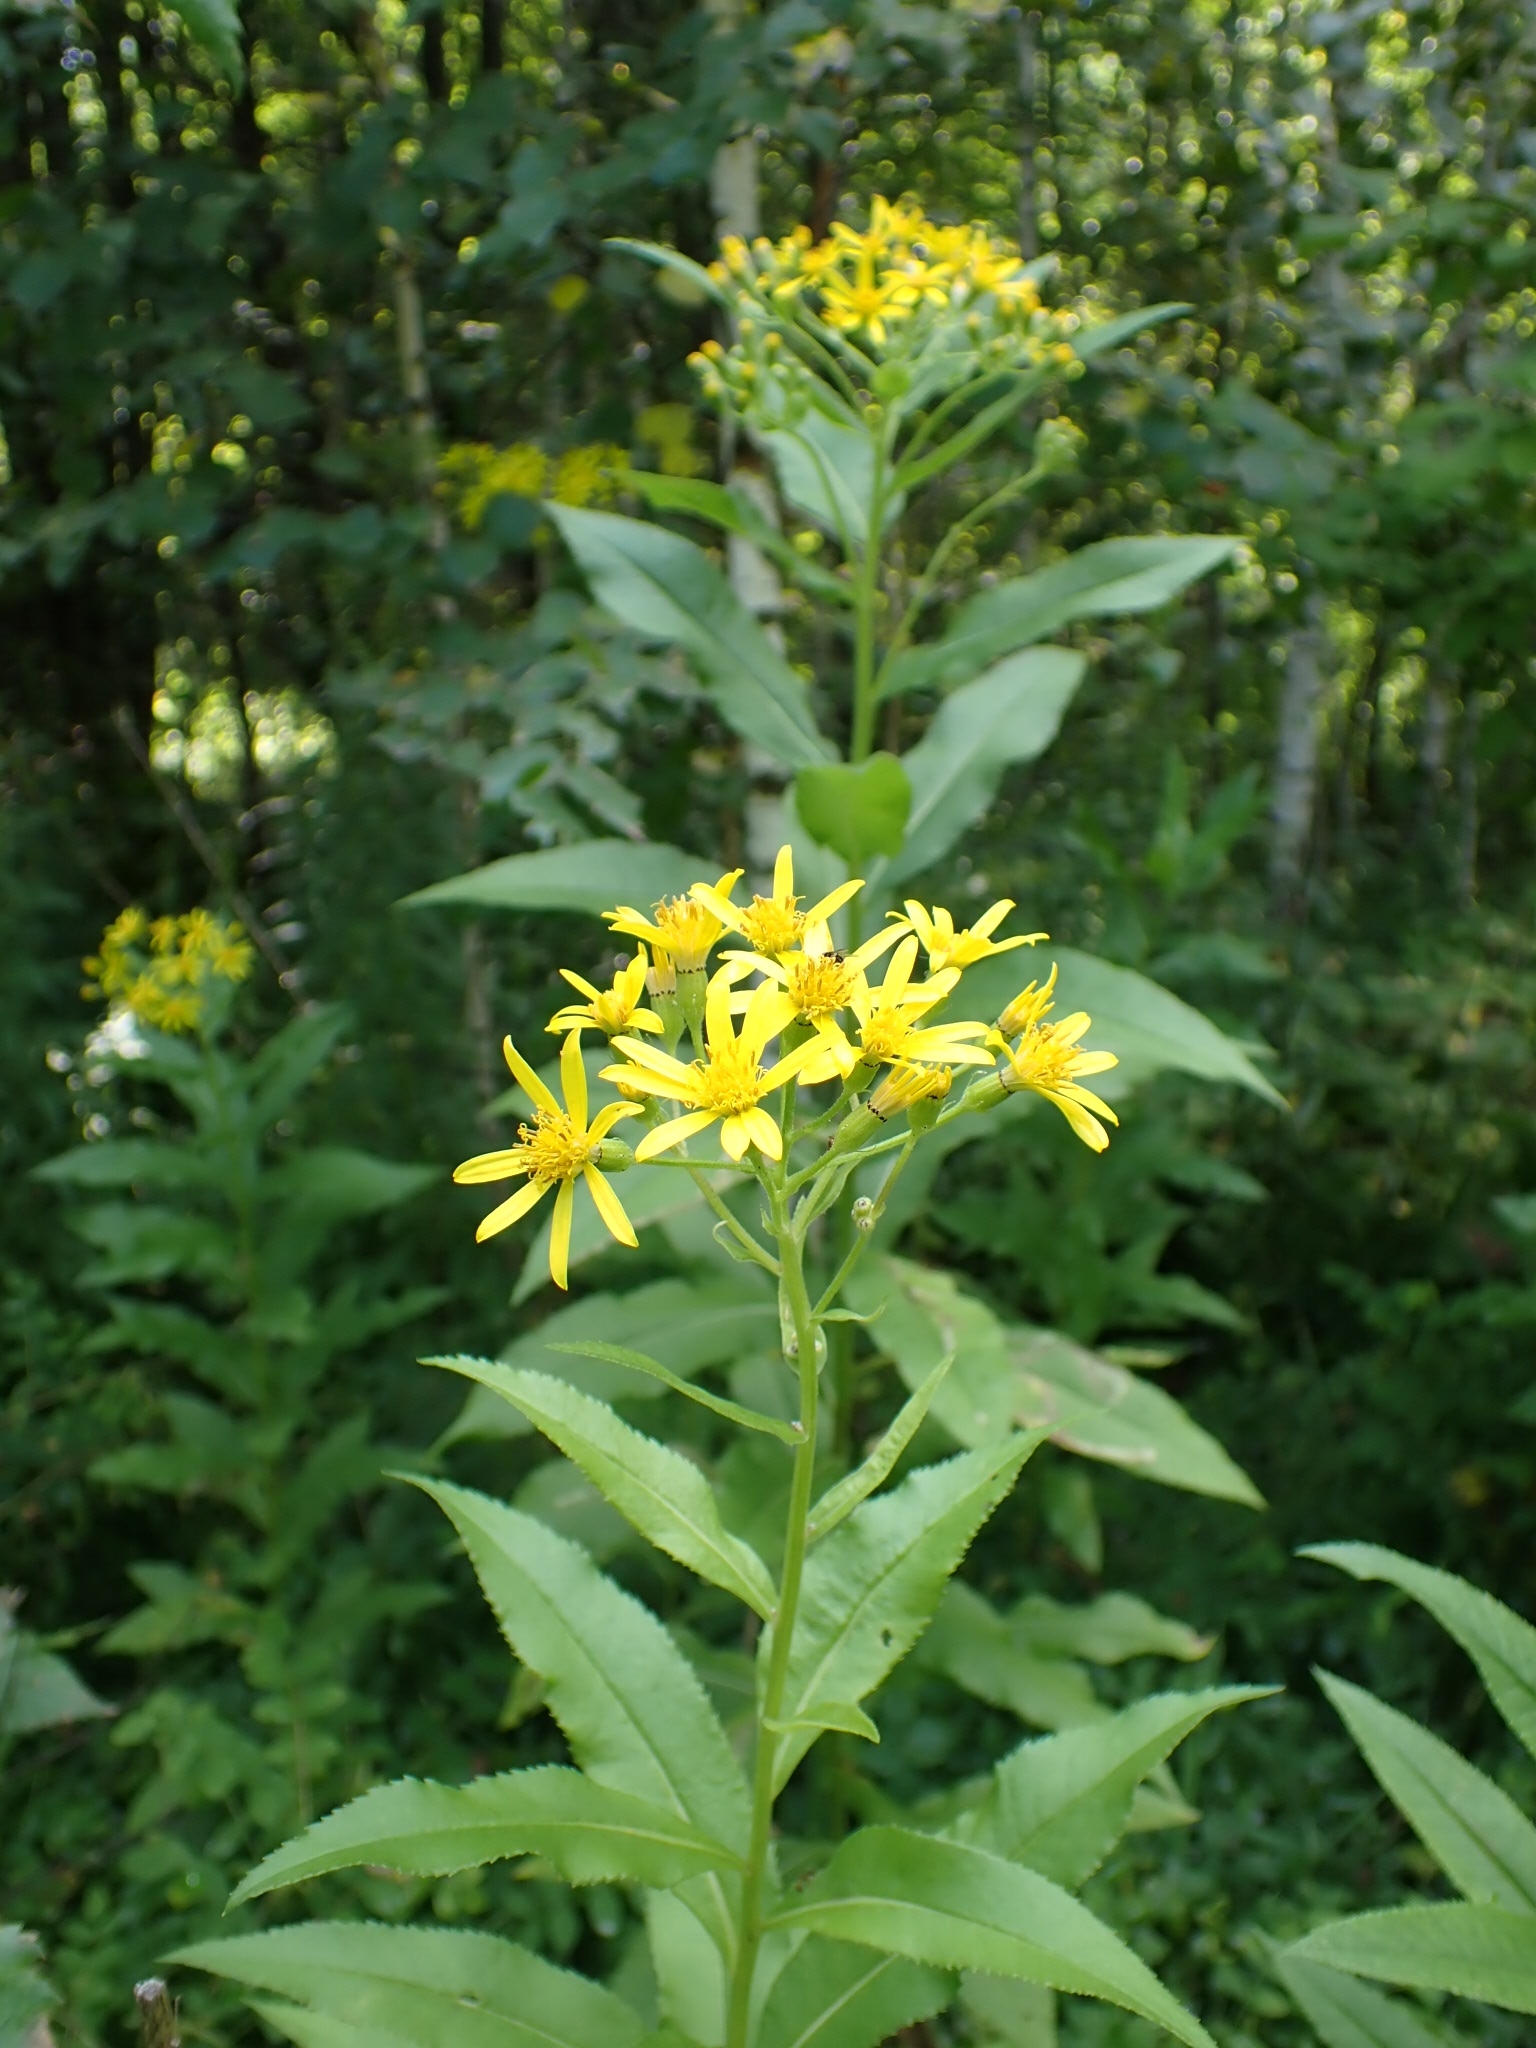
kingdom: Plantae
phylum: Tracheophyta
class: Magnoliopsida
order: Asterales
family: Asteraceae
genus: Senecio
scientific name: Senecio sarracenicus
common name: Broad-leaved ragwort
